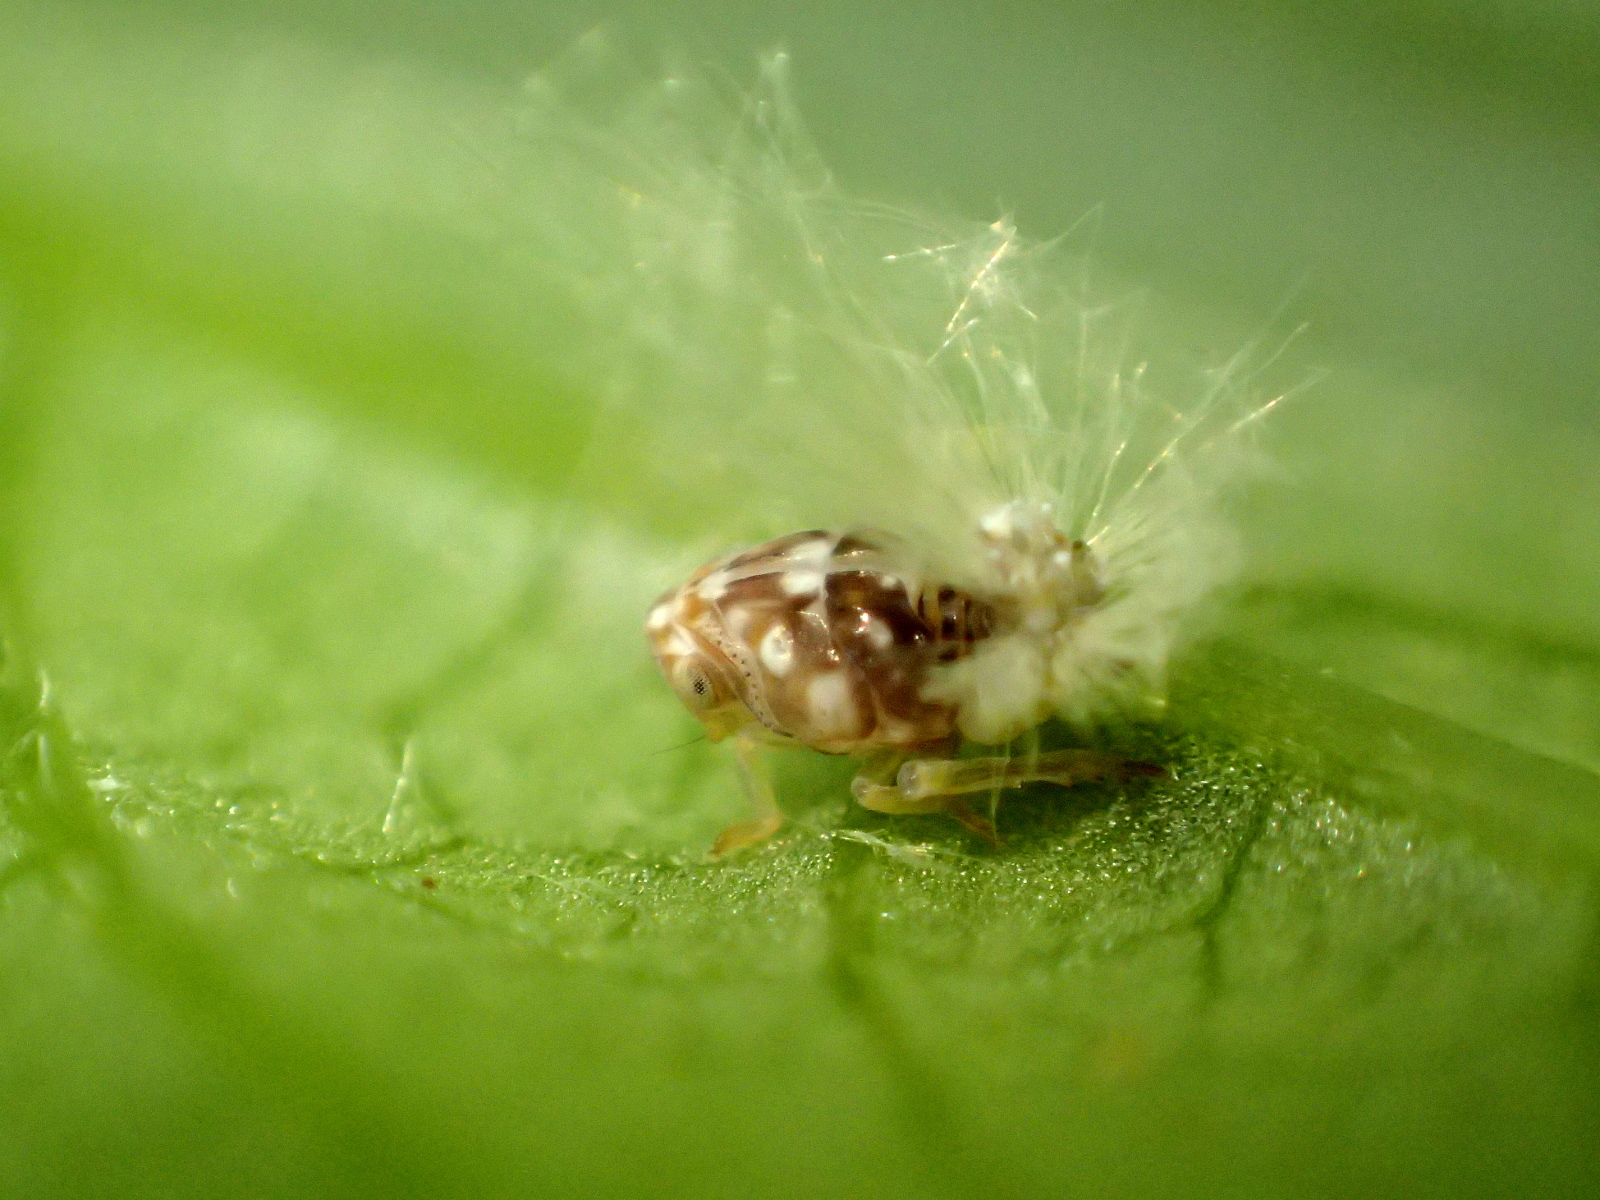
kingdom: Animalia
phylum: Arthropoda
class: Insecta
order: Hemiptera
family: Ricaniidae
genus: Scolypopa
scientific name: Scolypopa australis
